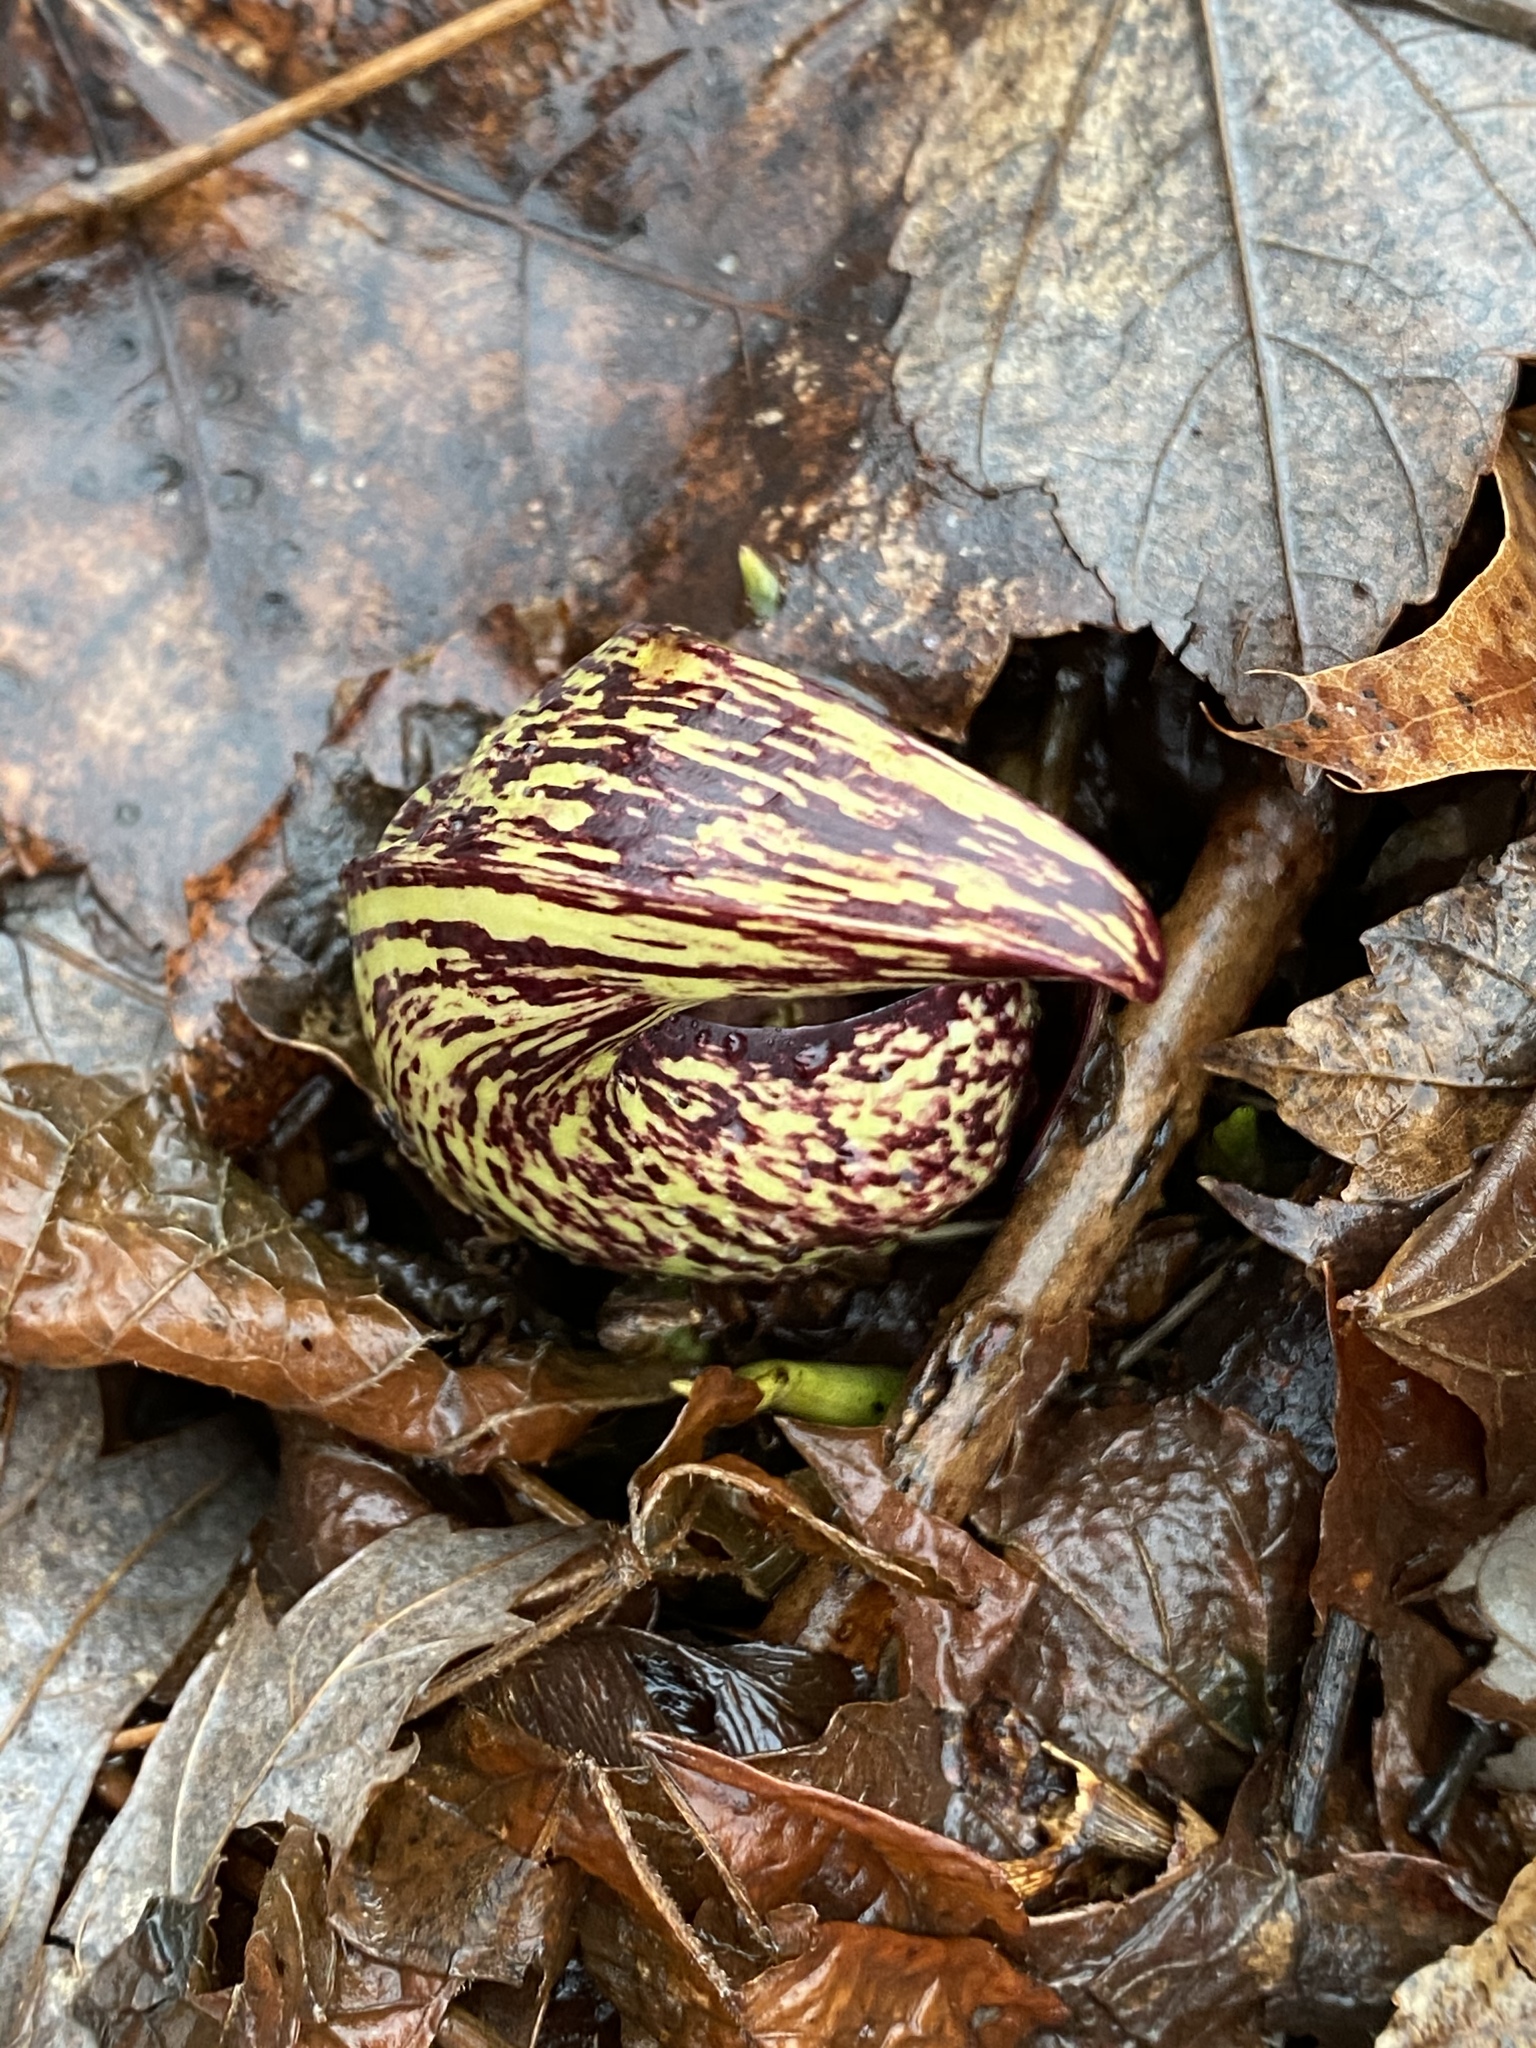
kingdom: Plantae
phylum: Tracheophyta
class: Liliopsida
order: Alismatales
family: Araceae
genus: Symplocarpus
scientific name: Symplocarpus foetidus
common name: Eastern skunk cabbage
